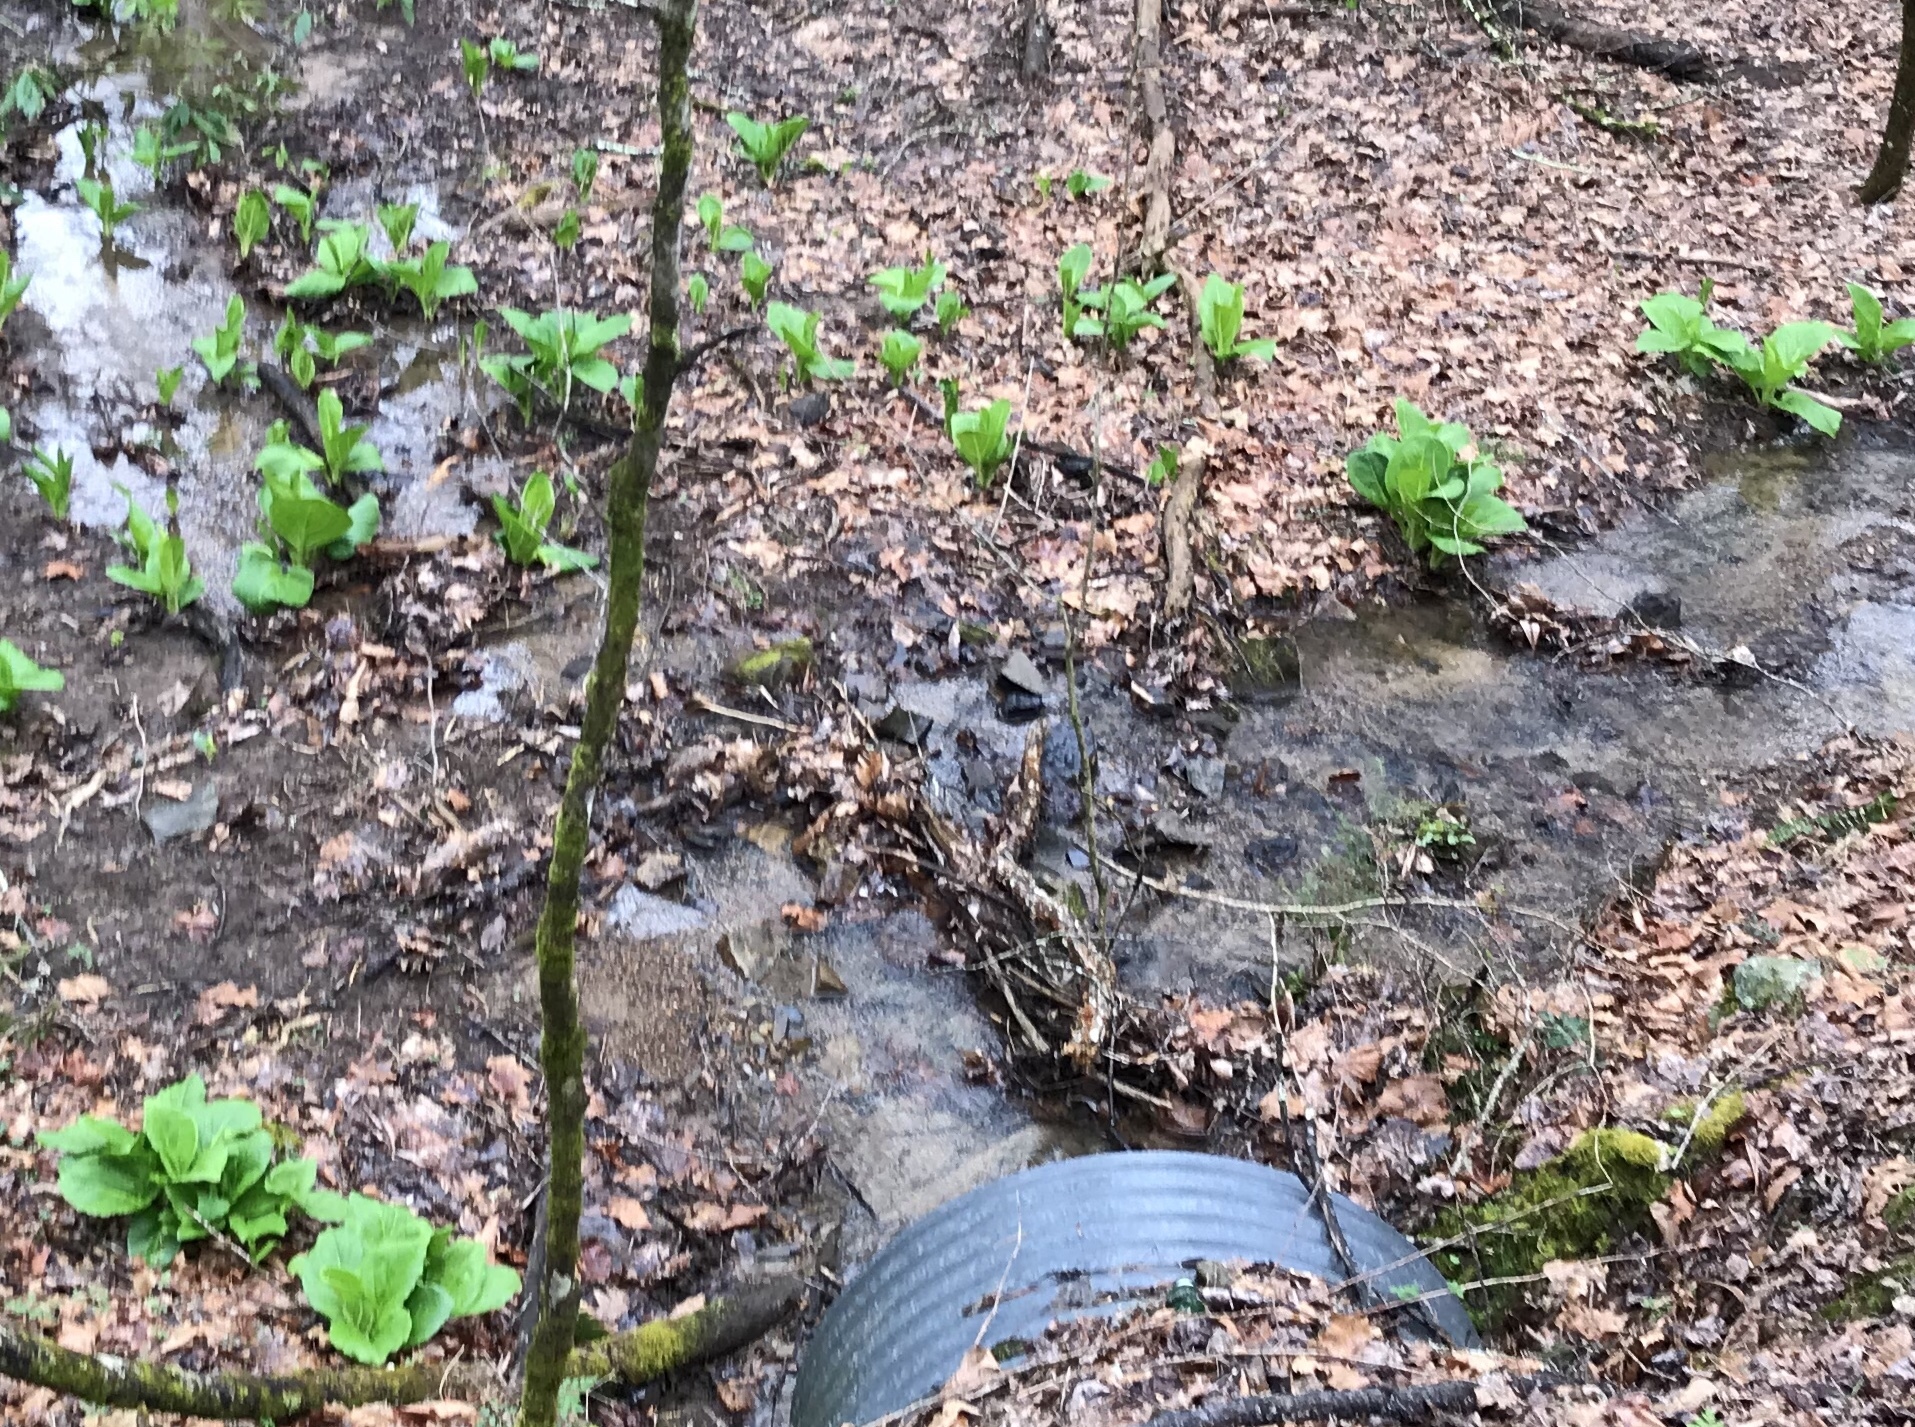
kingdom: Plantae
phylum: Tracheophyta
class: Liliopsida
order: Alismatales
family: Araceae
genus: Symplocarpus
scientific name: Symplocarpus foetidus
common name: Eastern skunk cabbage
